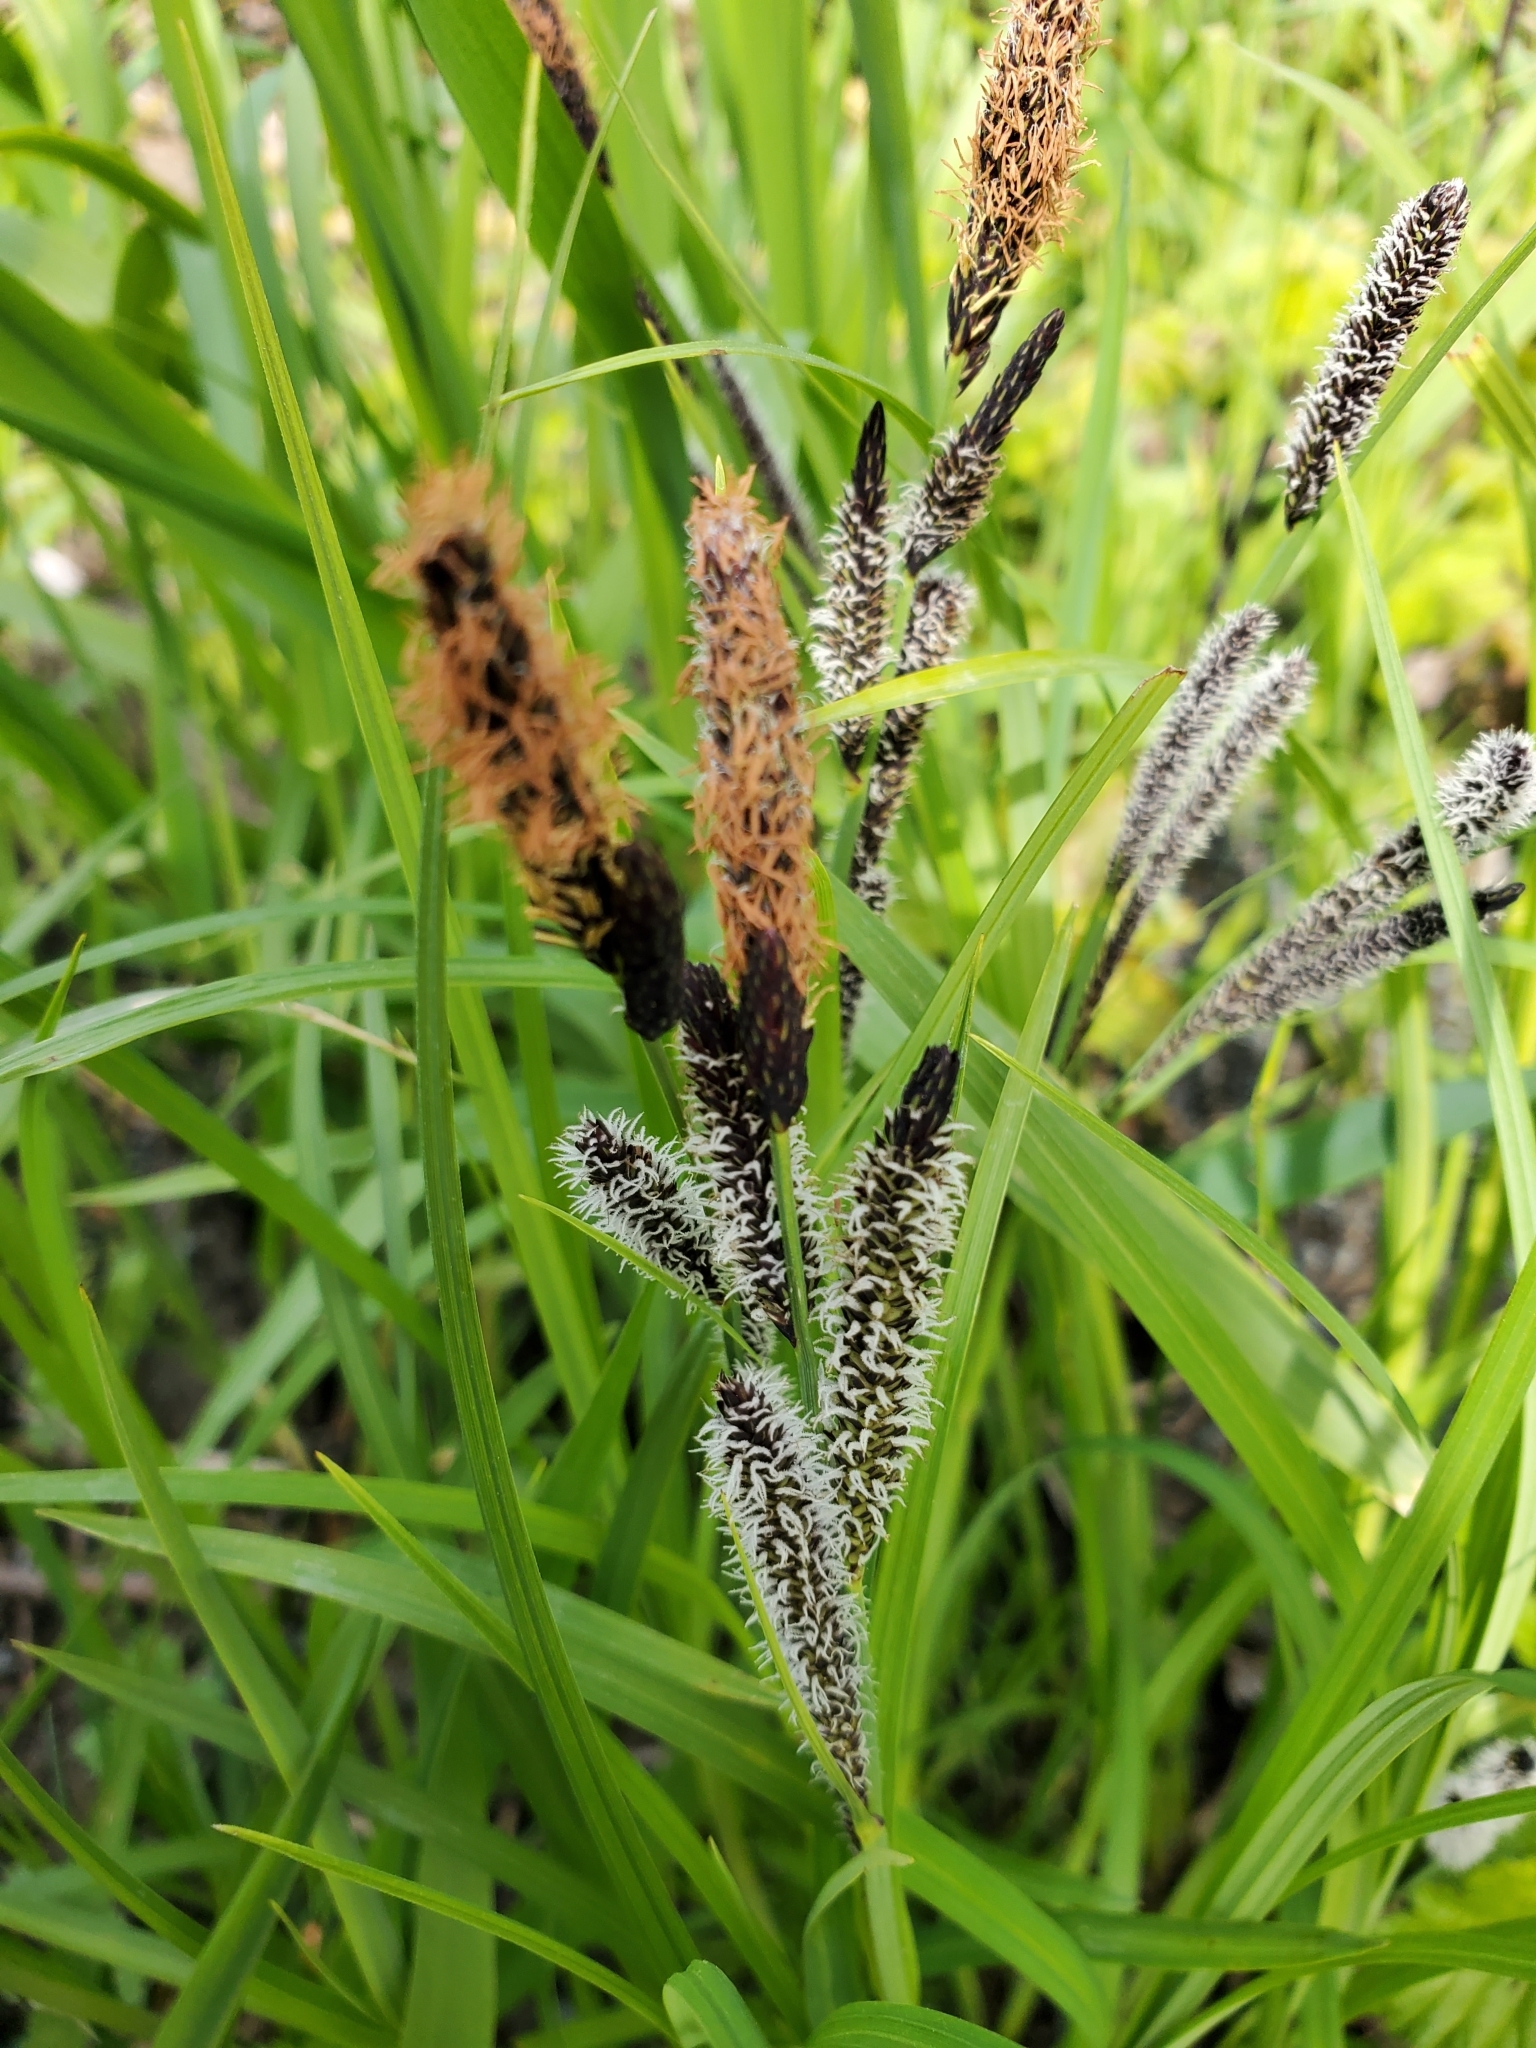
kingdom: Plantae
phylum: Tracheophyta
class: Liliopsida
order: Poales
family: Cyperaceae
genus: Carex
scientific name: Carex obnupta
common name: Slough sedge
